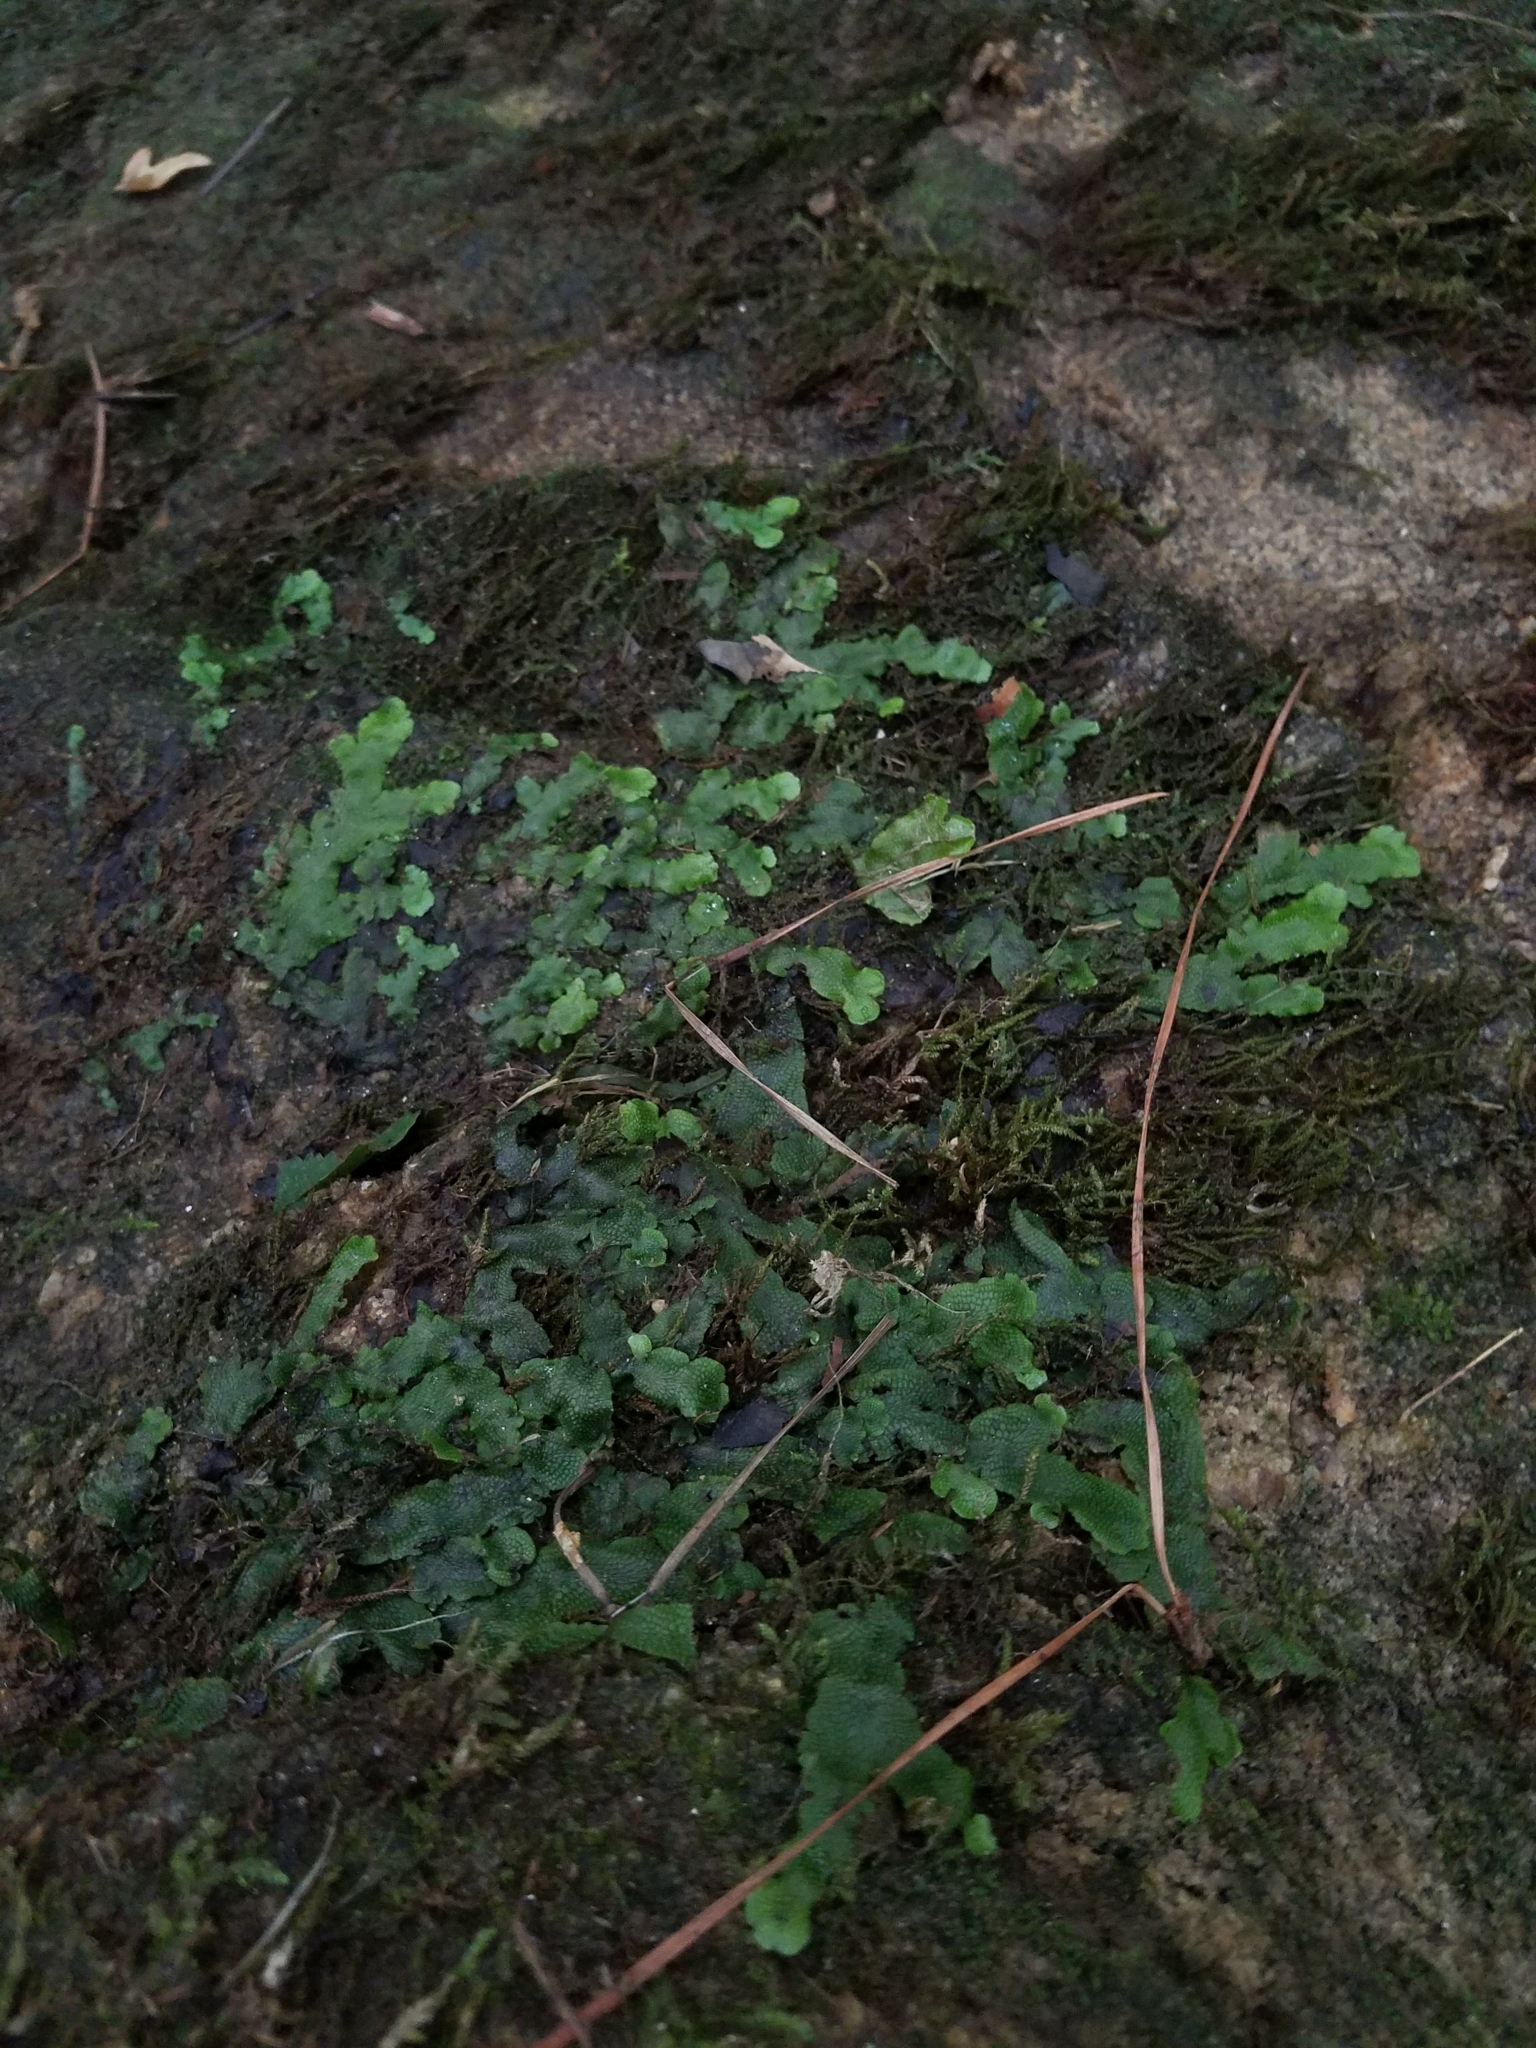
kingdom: Plantae
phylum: Marchantiophyta
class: Marchantiopsida
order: Marchantiales
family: Conocephalaceae
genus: Conocephalum
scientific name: Conocephalum salebrosum
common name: Cat-tongue liverwort
